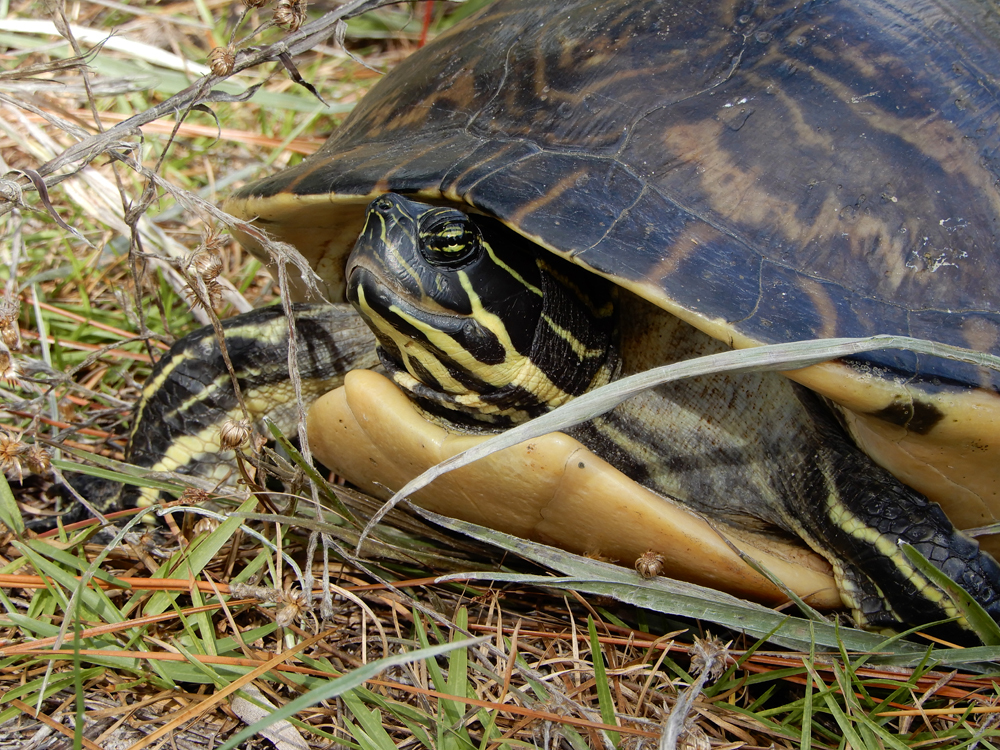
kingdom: Animalia
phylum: Chordata
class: Testudines
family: Emydidae
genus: Pseudemys
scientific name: Pseudemys peninsularis
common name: Peninsula cooter
